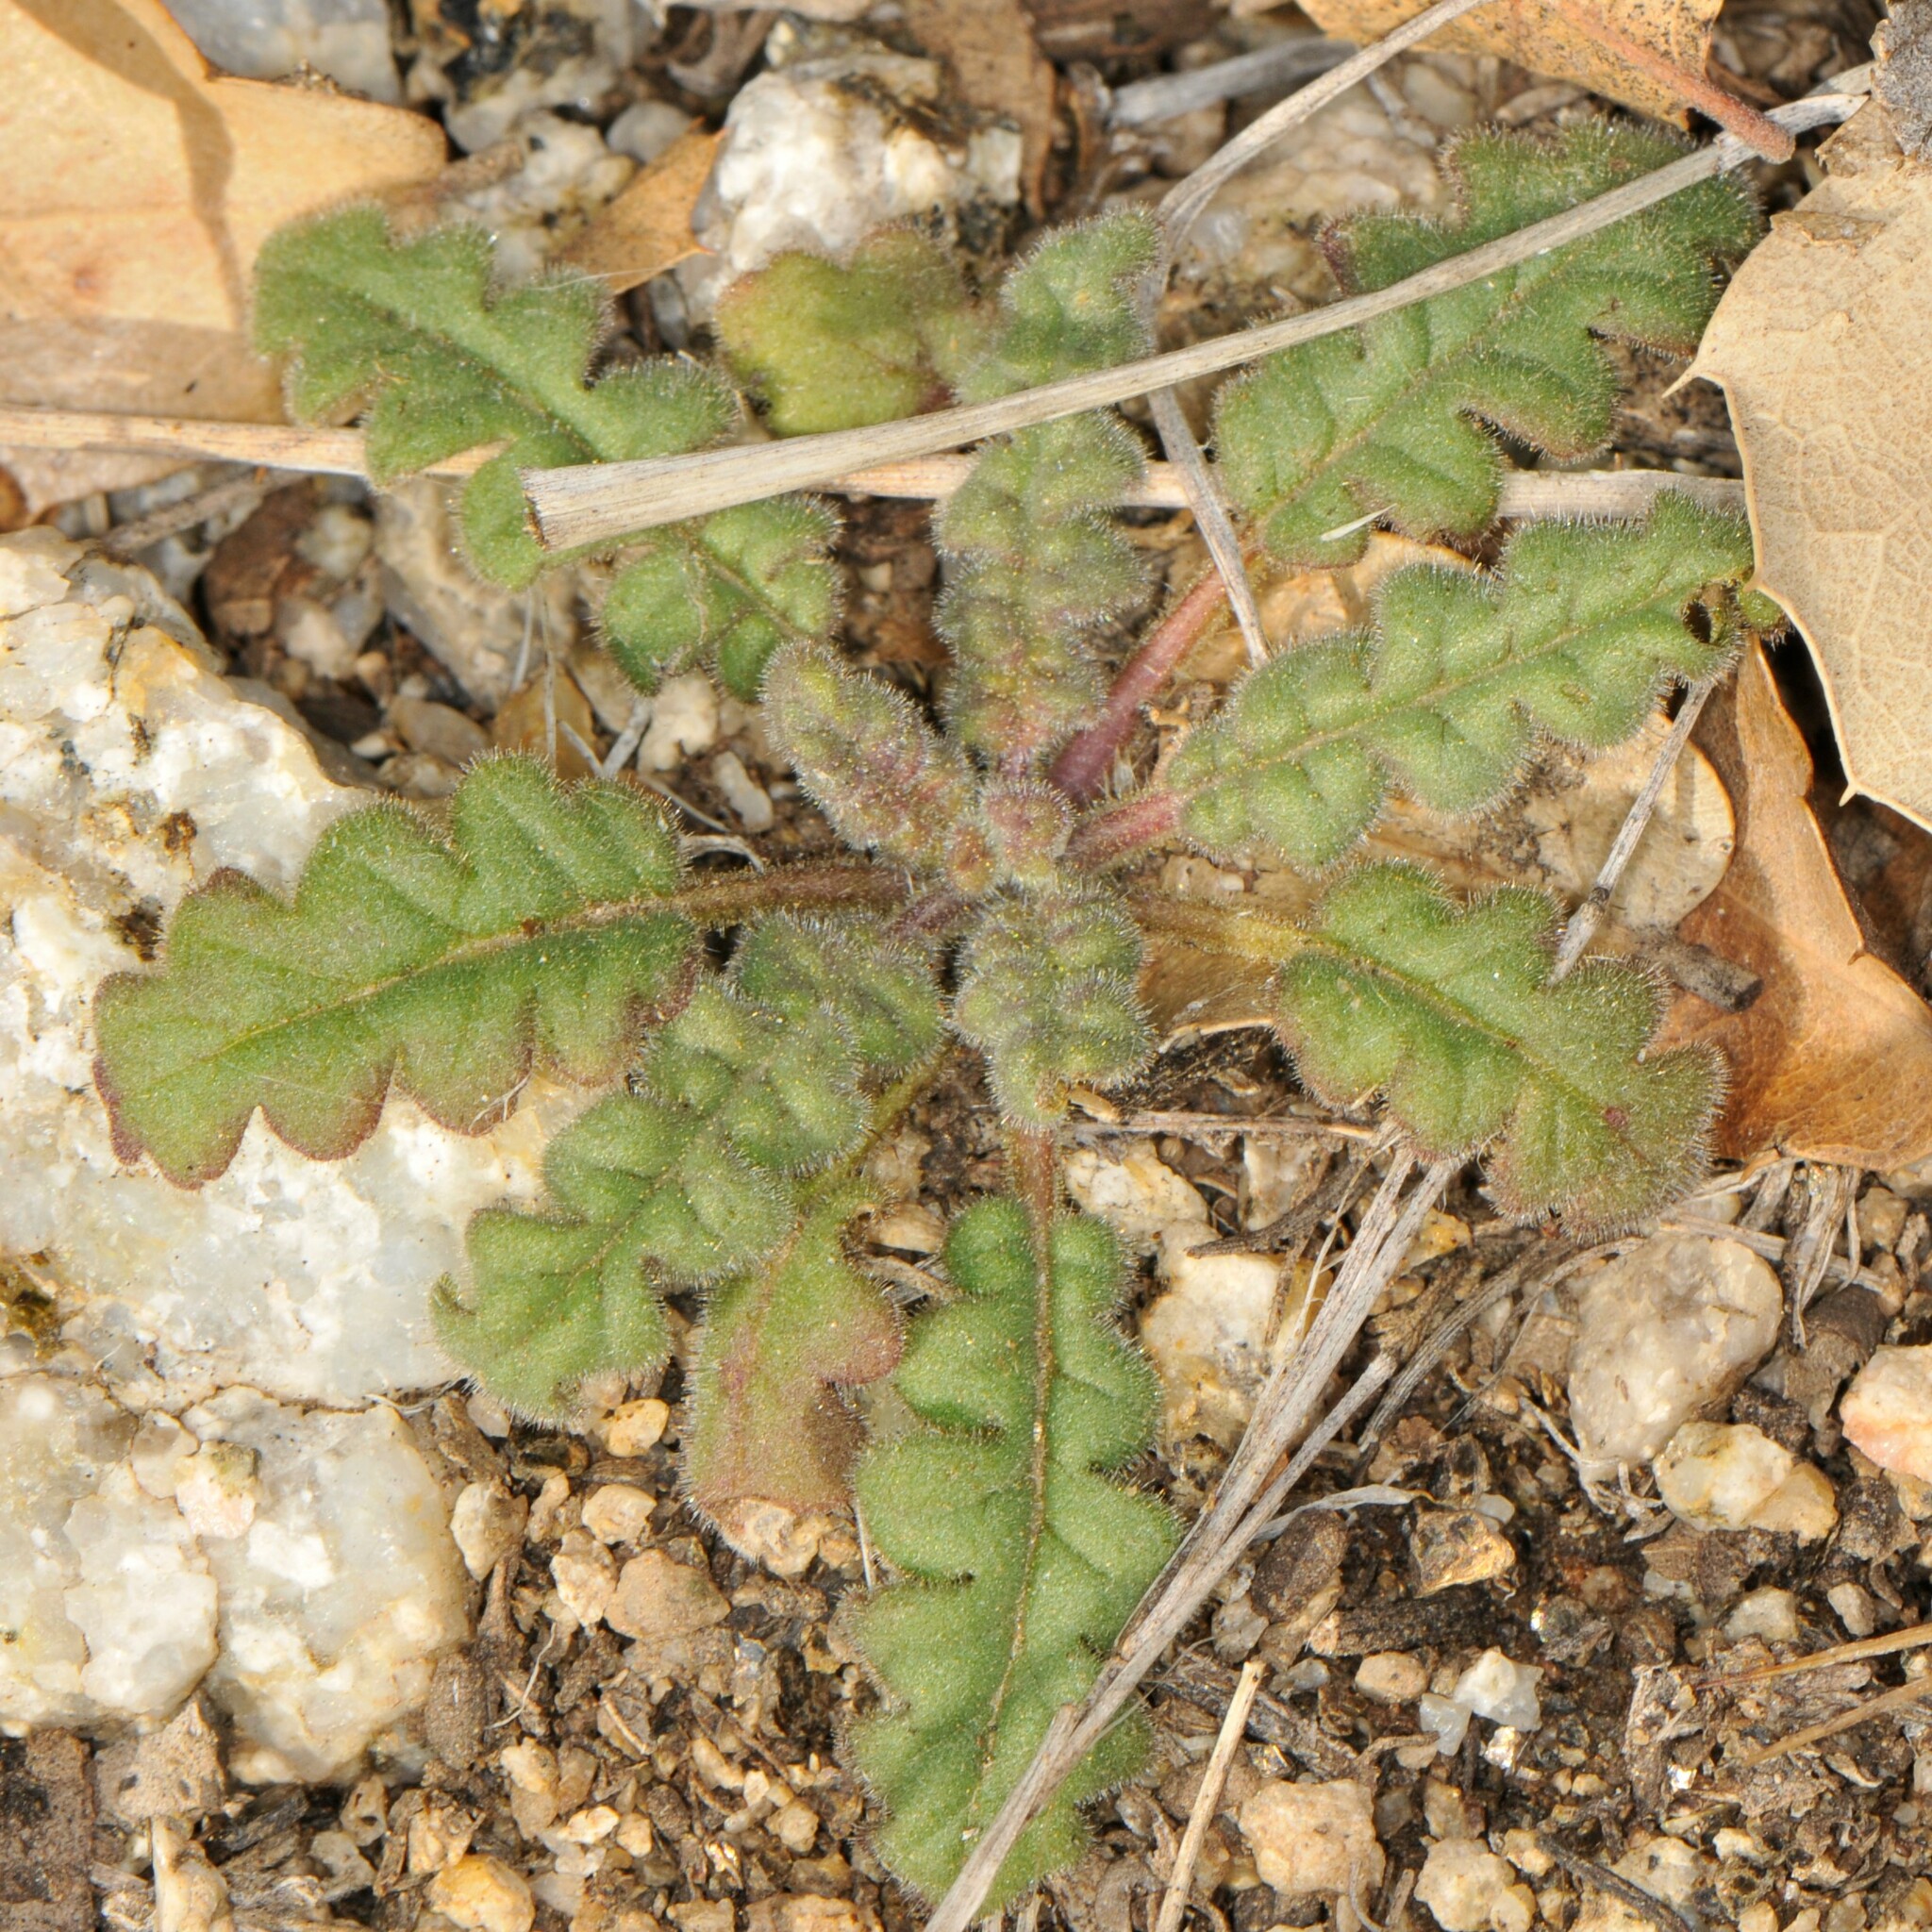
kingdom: Plantae
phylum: Tracheophyta
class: Magnoliopsida
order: Boraginales
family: Hydrophyllaceae
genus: Phacelia
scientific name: Phacelia coerulea
